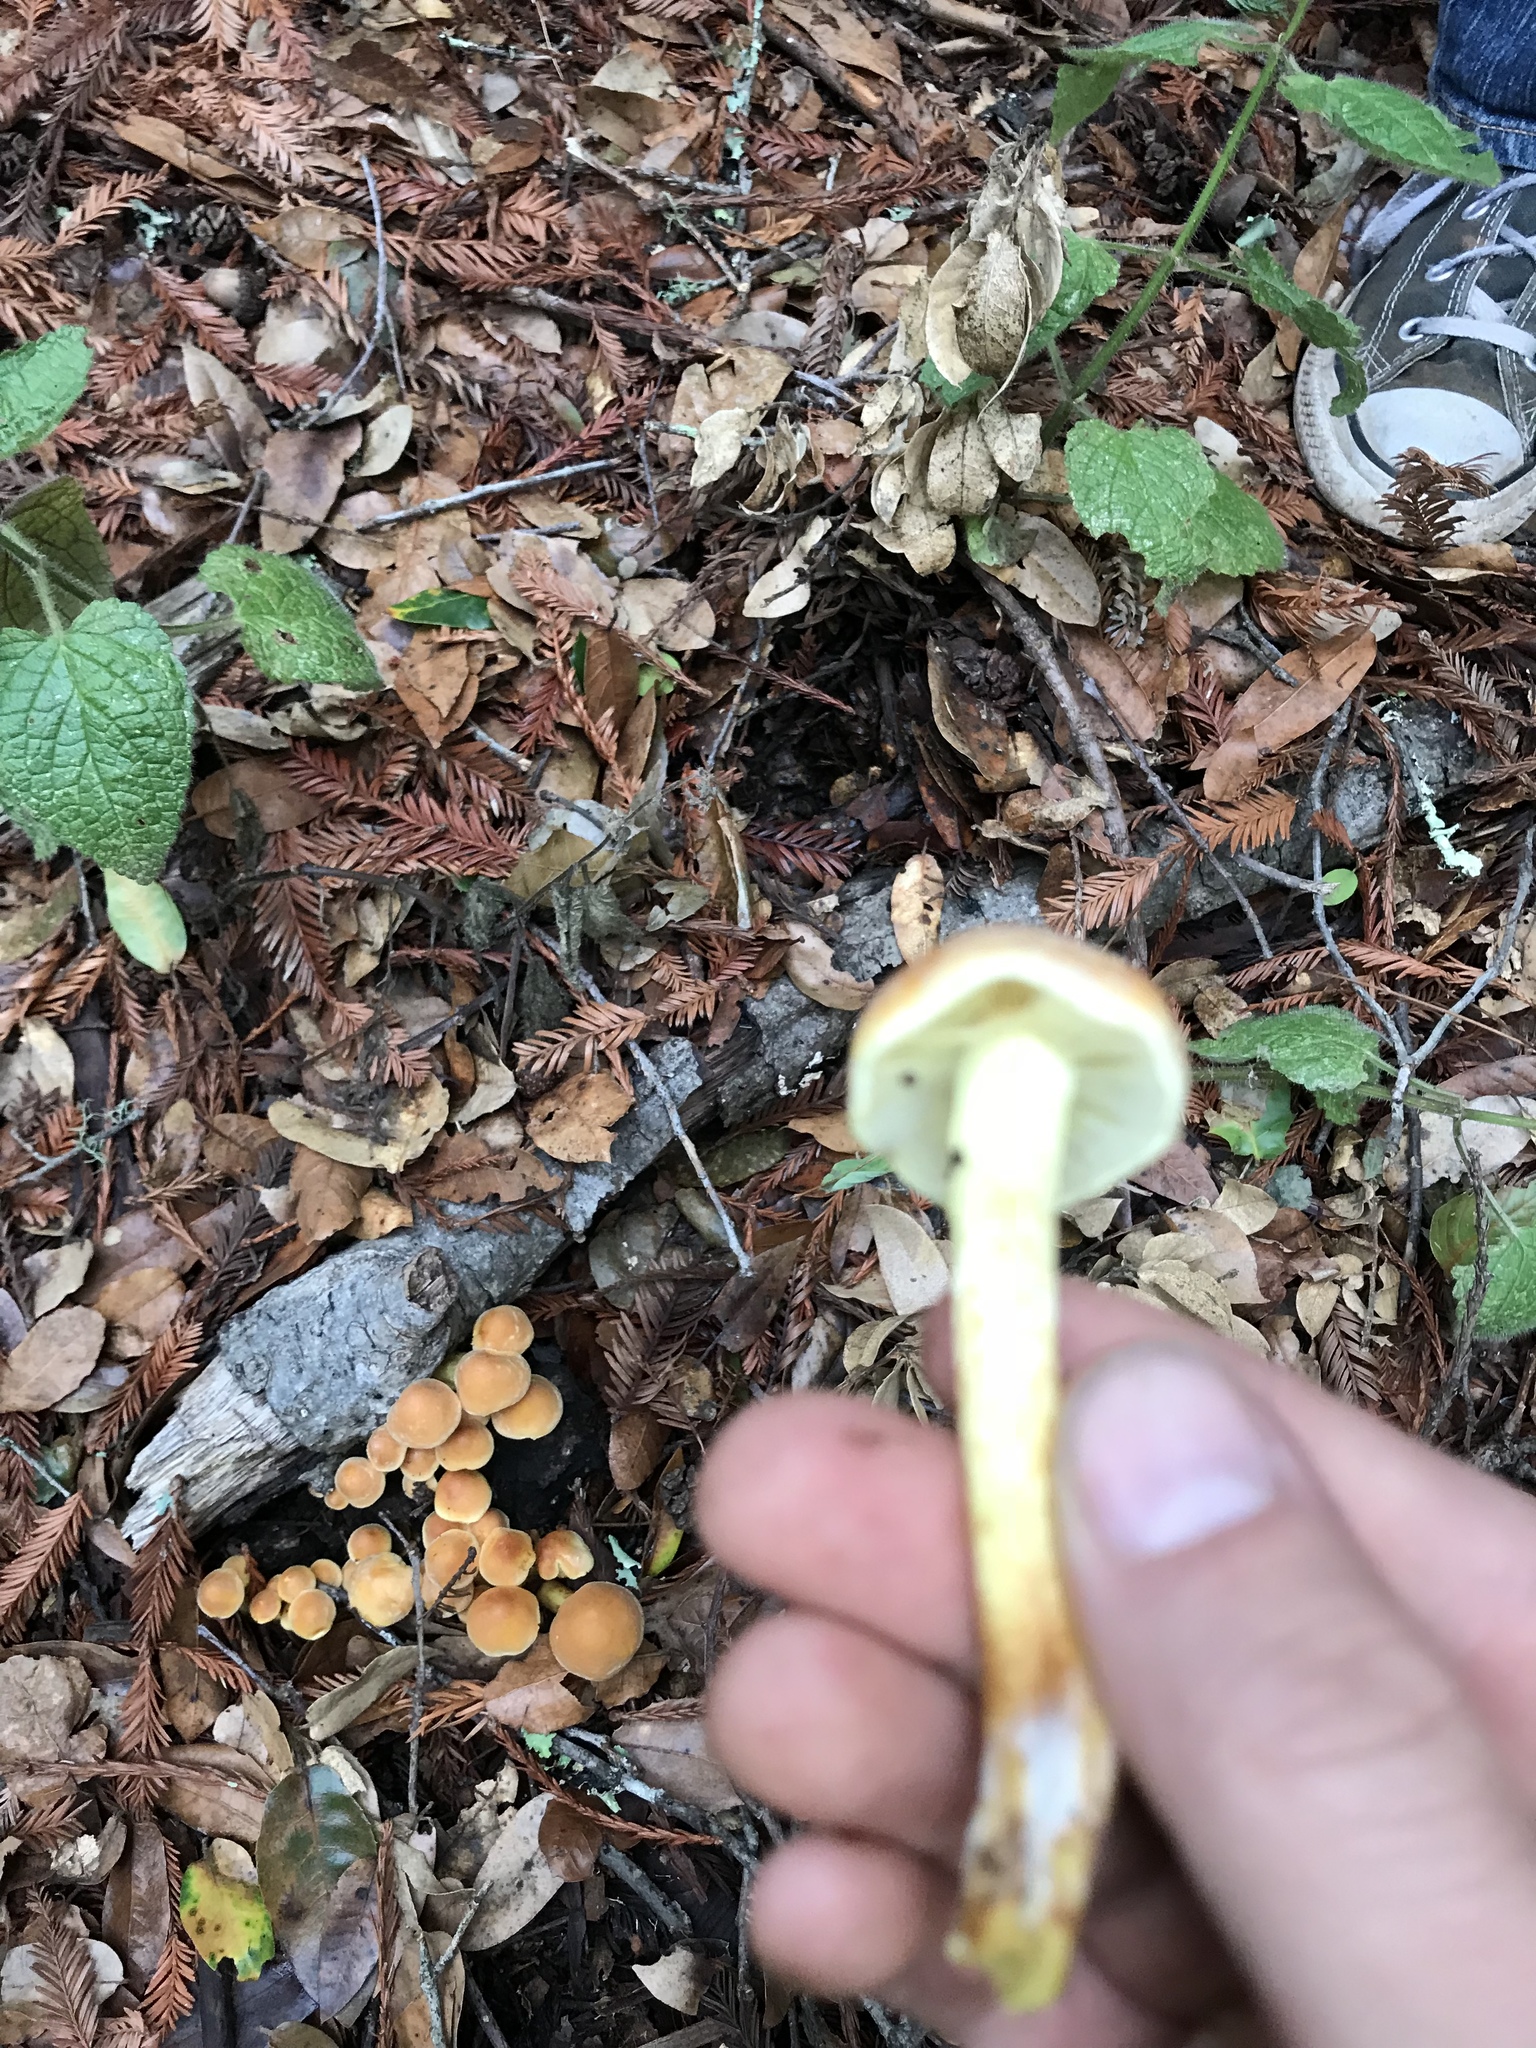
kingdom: Fungi
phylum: Basidiomycota
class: Agaricomycetes
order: Agaricales
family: Strophariaceae
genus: Hypholoma
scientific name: Hypholoma fasciculare
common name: Sulphur tuft
